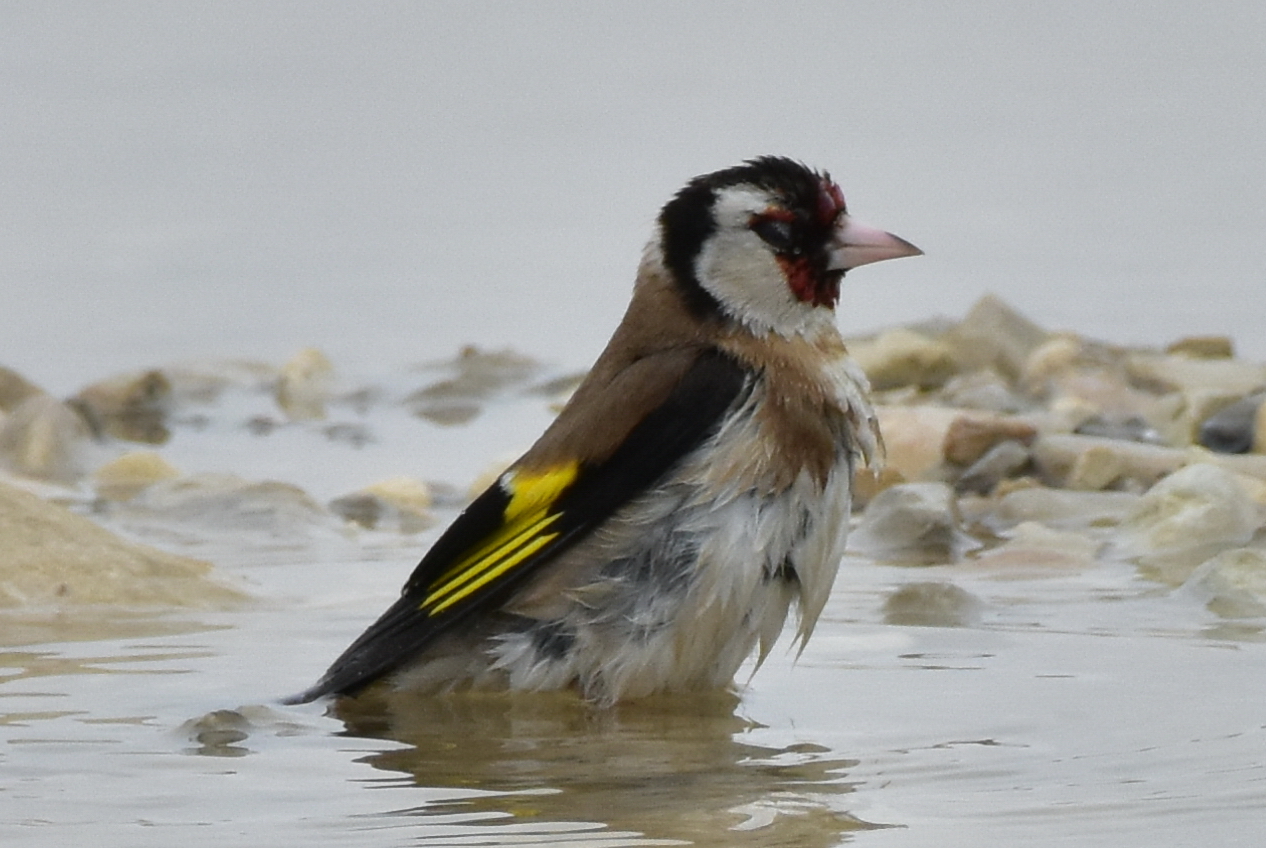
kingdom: Animalia
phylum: Chordata
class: Aves
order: Passeriformes
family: Fringillidae
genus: Carduelis
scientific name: Carduelis carduelis
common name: European goldfinch
